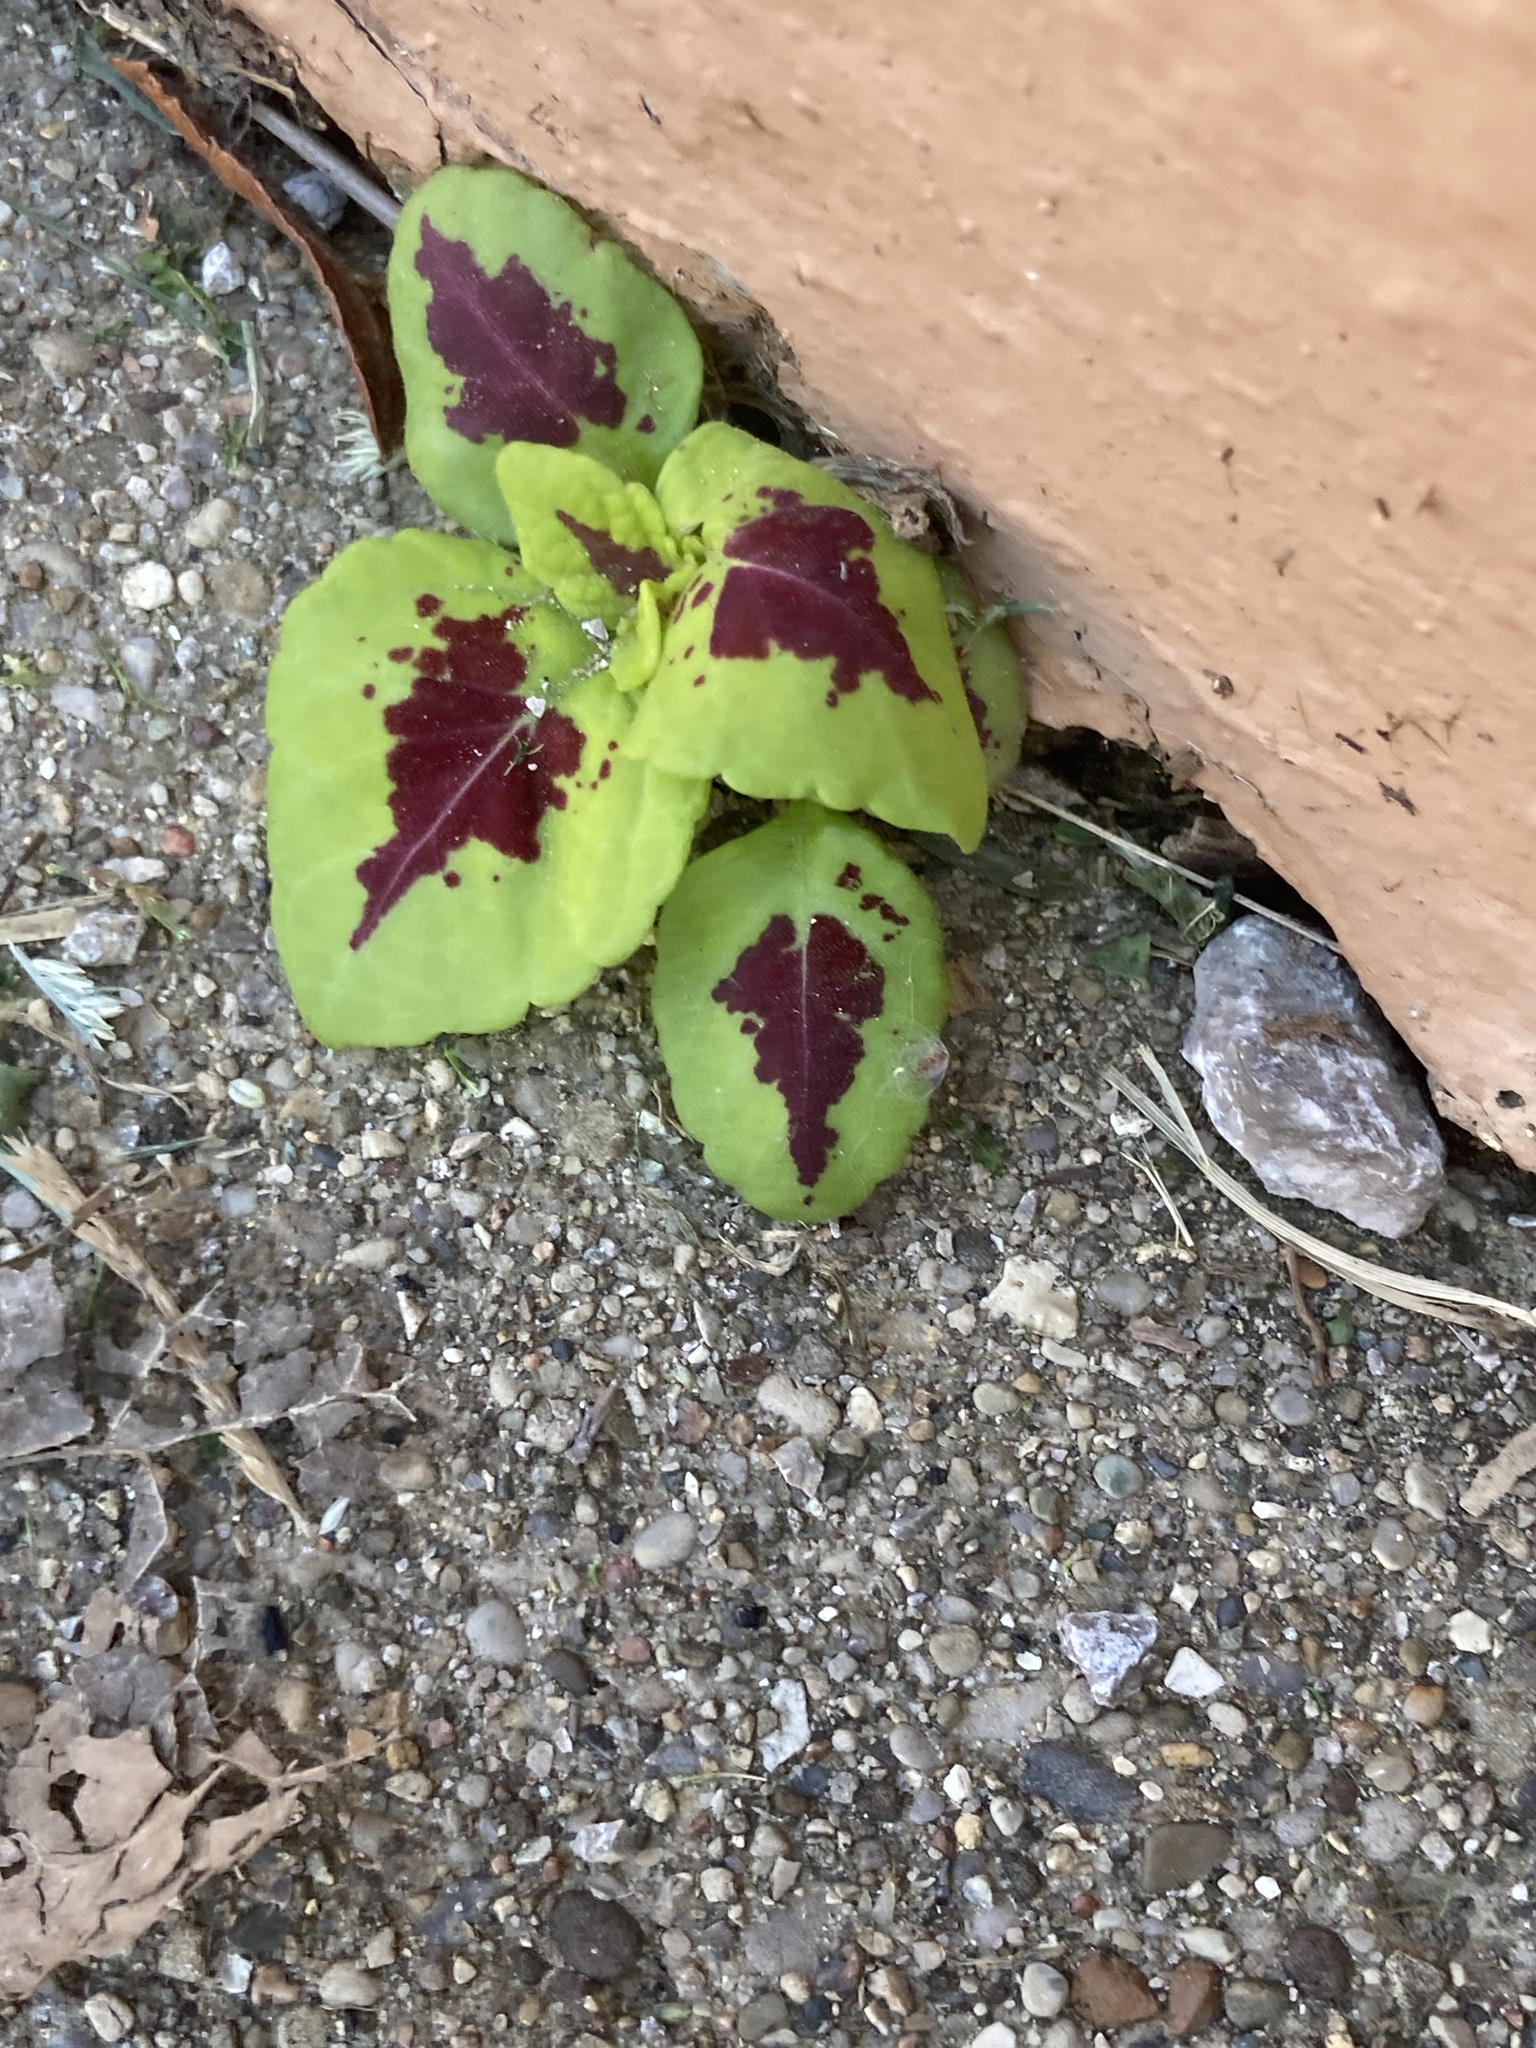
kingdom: Plantae
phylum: Tracheophyta
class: Magnoliopsida
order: Lamiales
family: Lamiaceae
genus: Coleus
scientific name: Coleus scutellarioides
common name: Coleus
